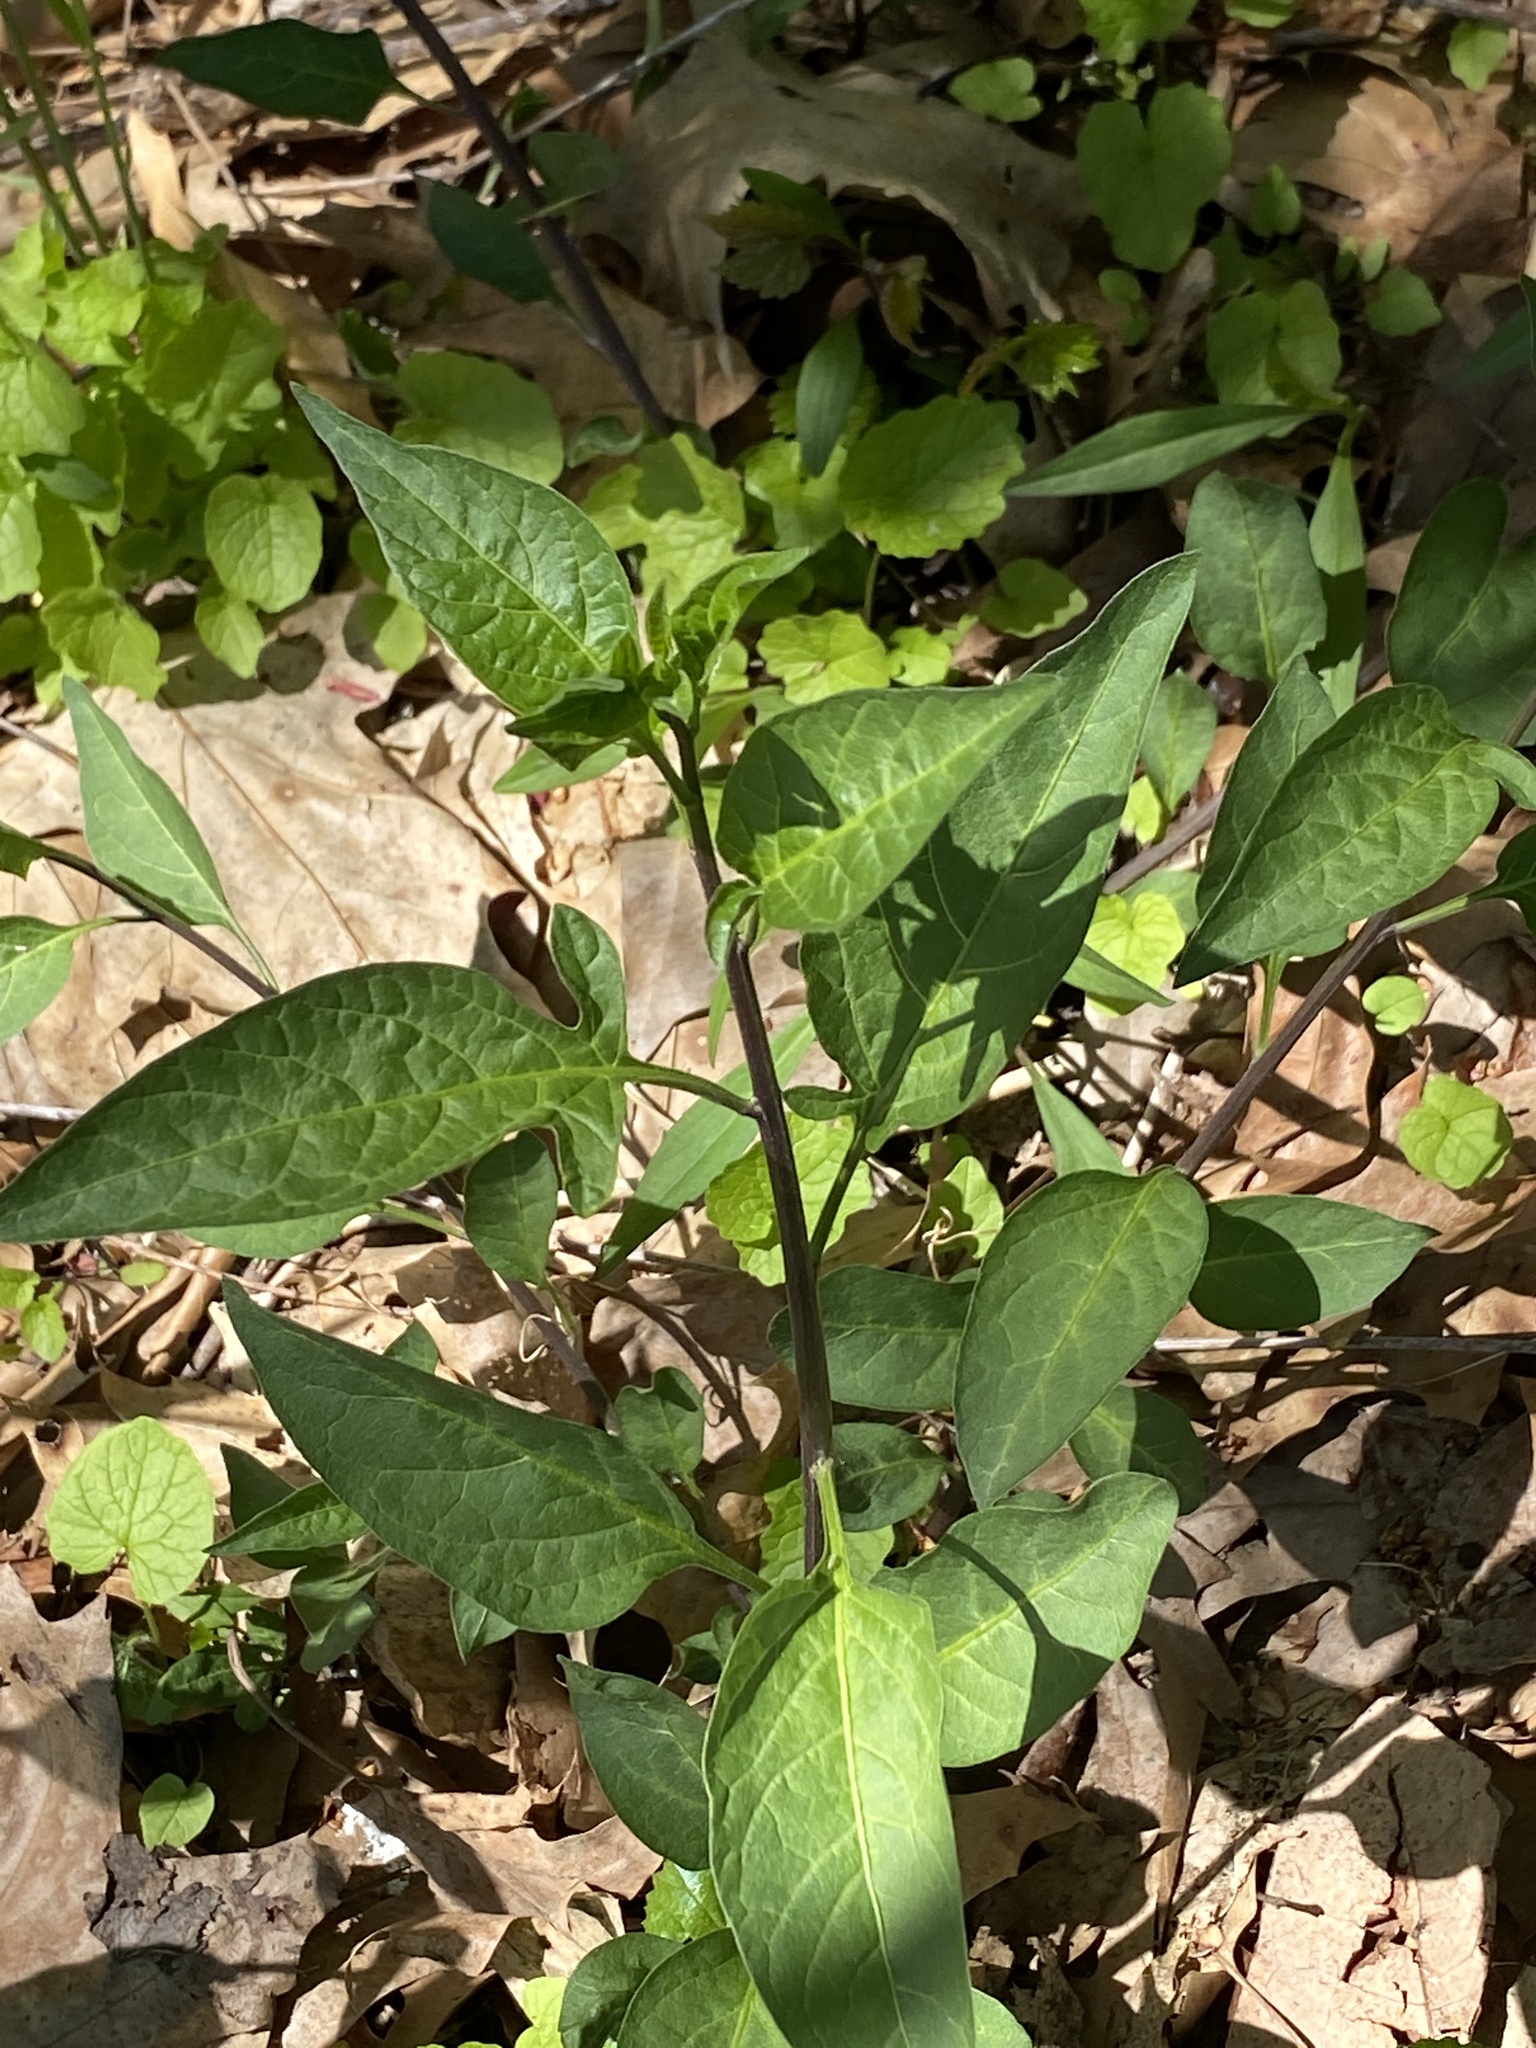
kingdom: Plantae
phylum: Tracheophyta
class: Magnoliopsida
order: Solanales
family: Solanaceae
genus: Solanum
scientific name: Solanum dulcamara
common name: Climbing nightshade
